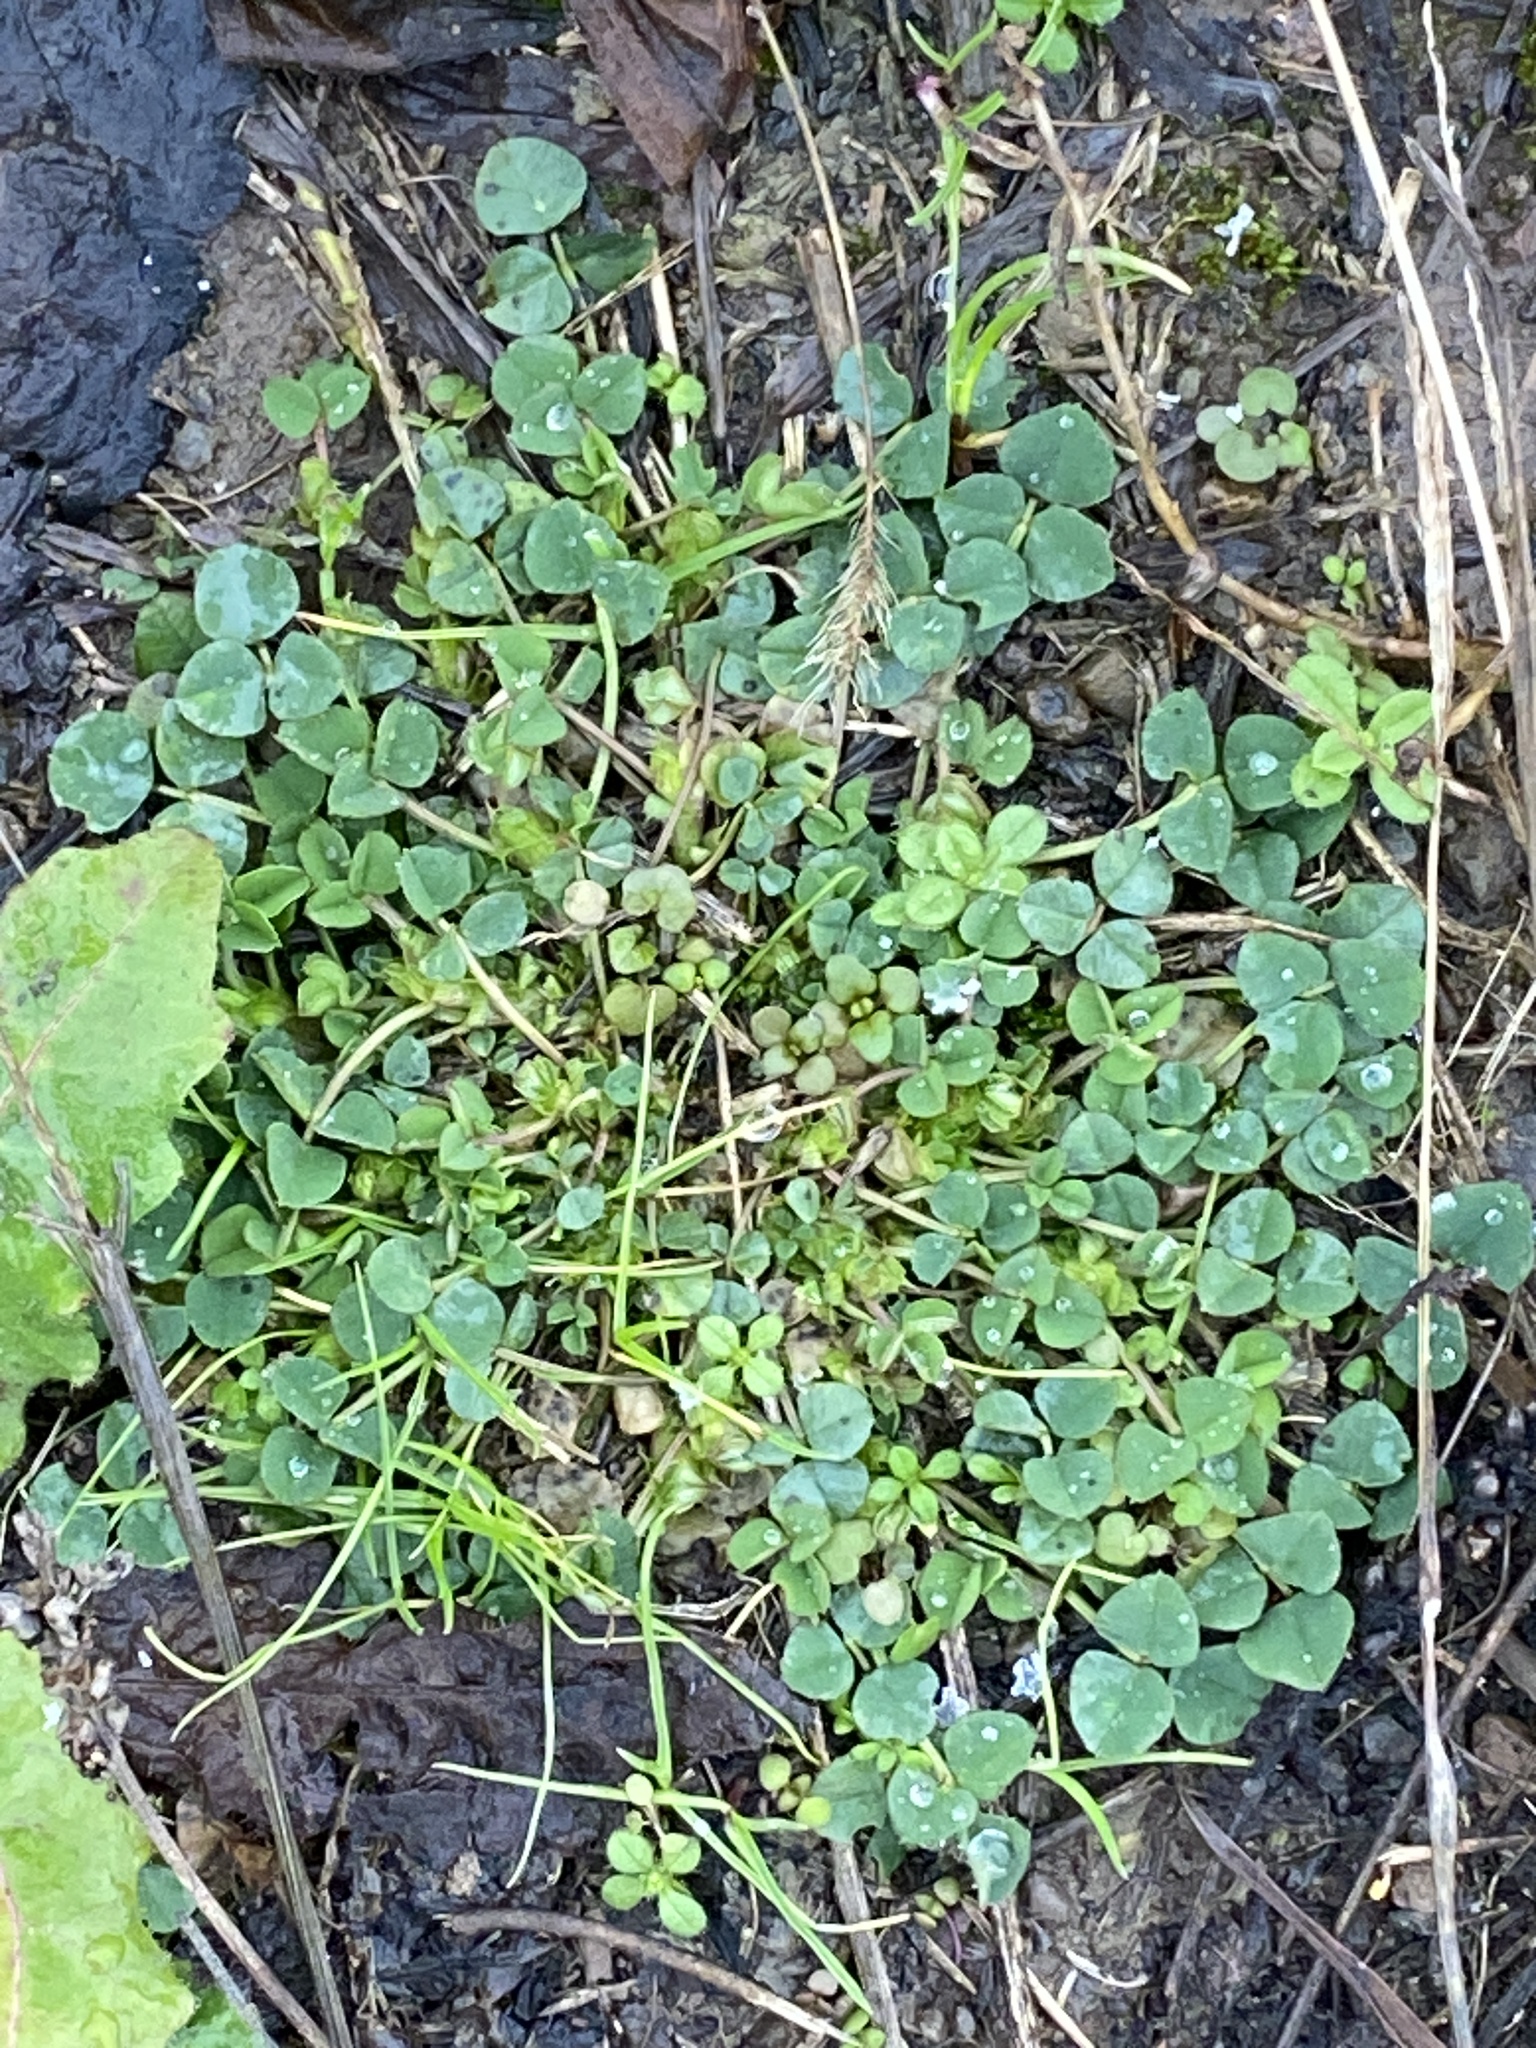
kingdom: Plantae
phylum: Tracheophyta
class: Magnoliopsida
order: Fabales
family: Fabaceae
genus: Medicago
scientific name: Medicago lupulina
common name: Black medick
